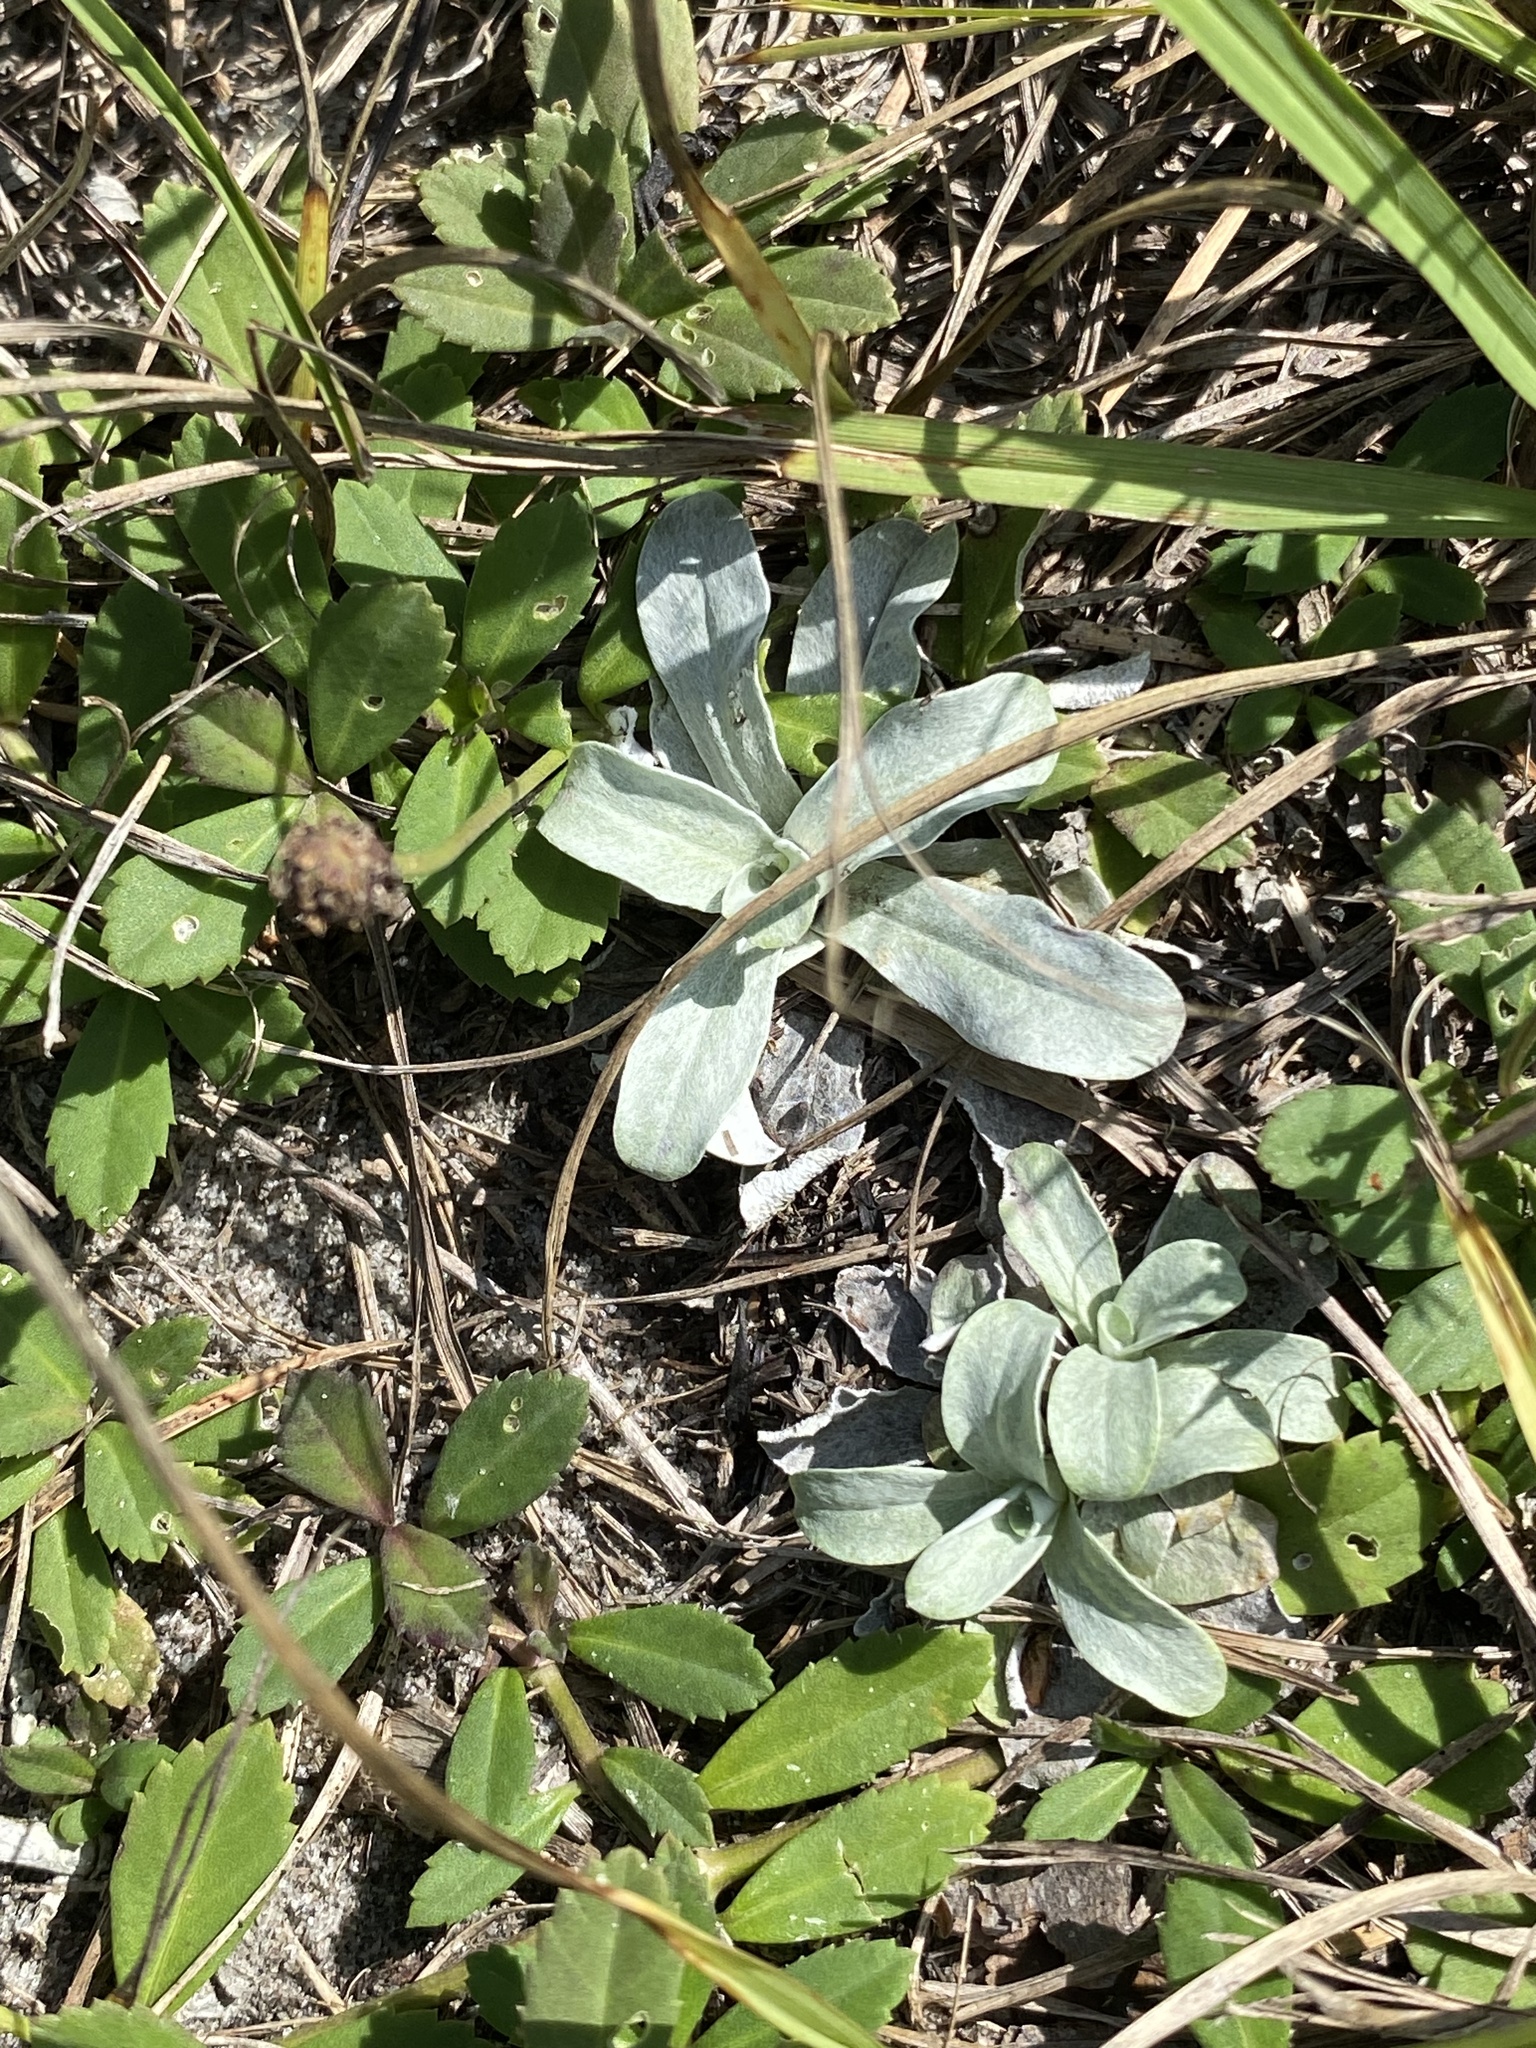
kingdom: Plantae
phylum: Tracheophyta
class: Magnoliopsida
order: Asterales
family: Asteraceae
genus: Gamochaeta
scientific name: Gamochaeta pensylvanica
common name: Pennsylvania everlasting
